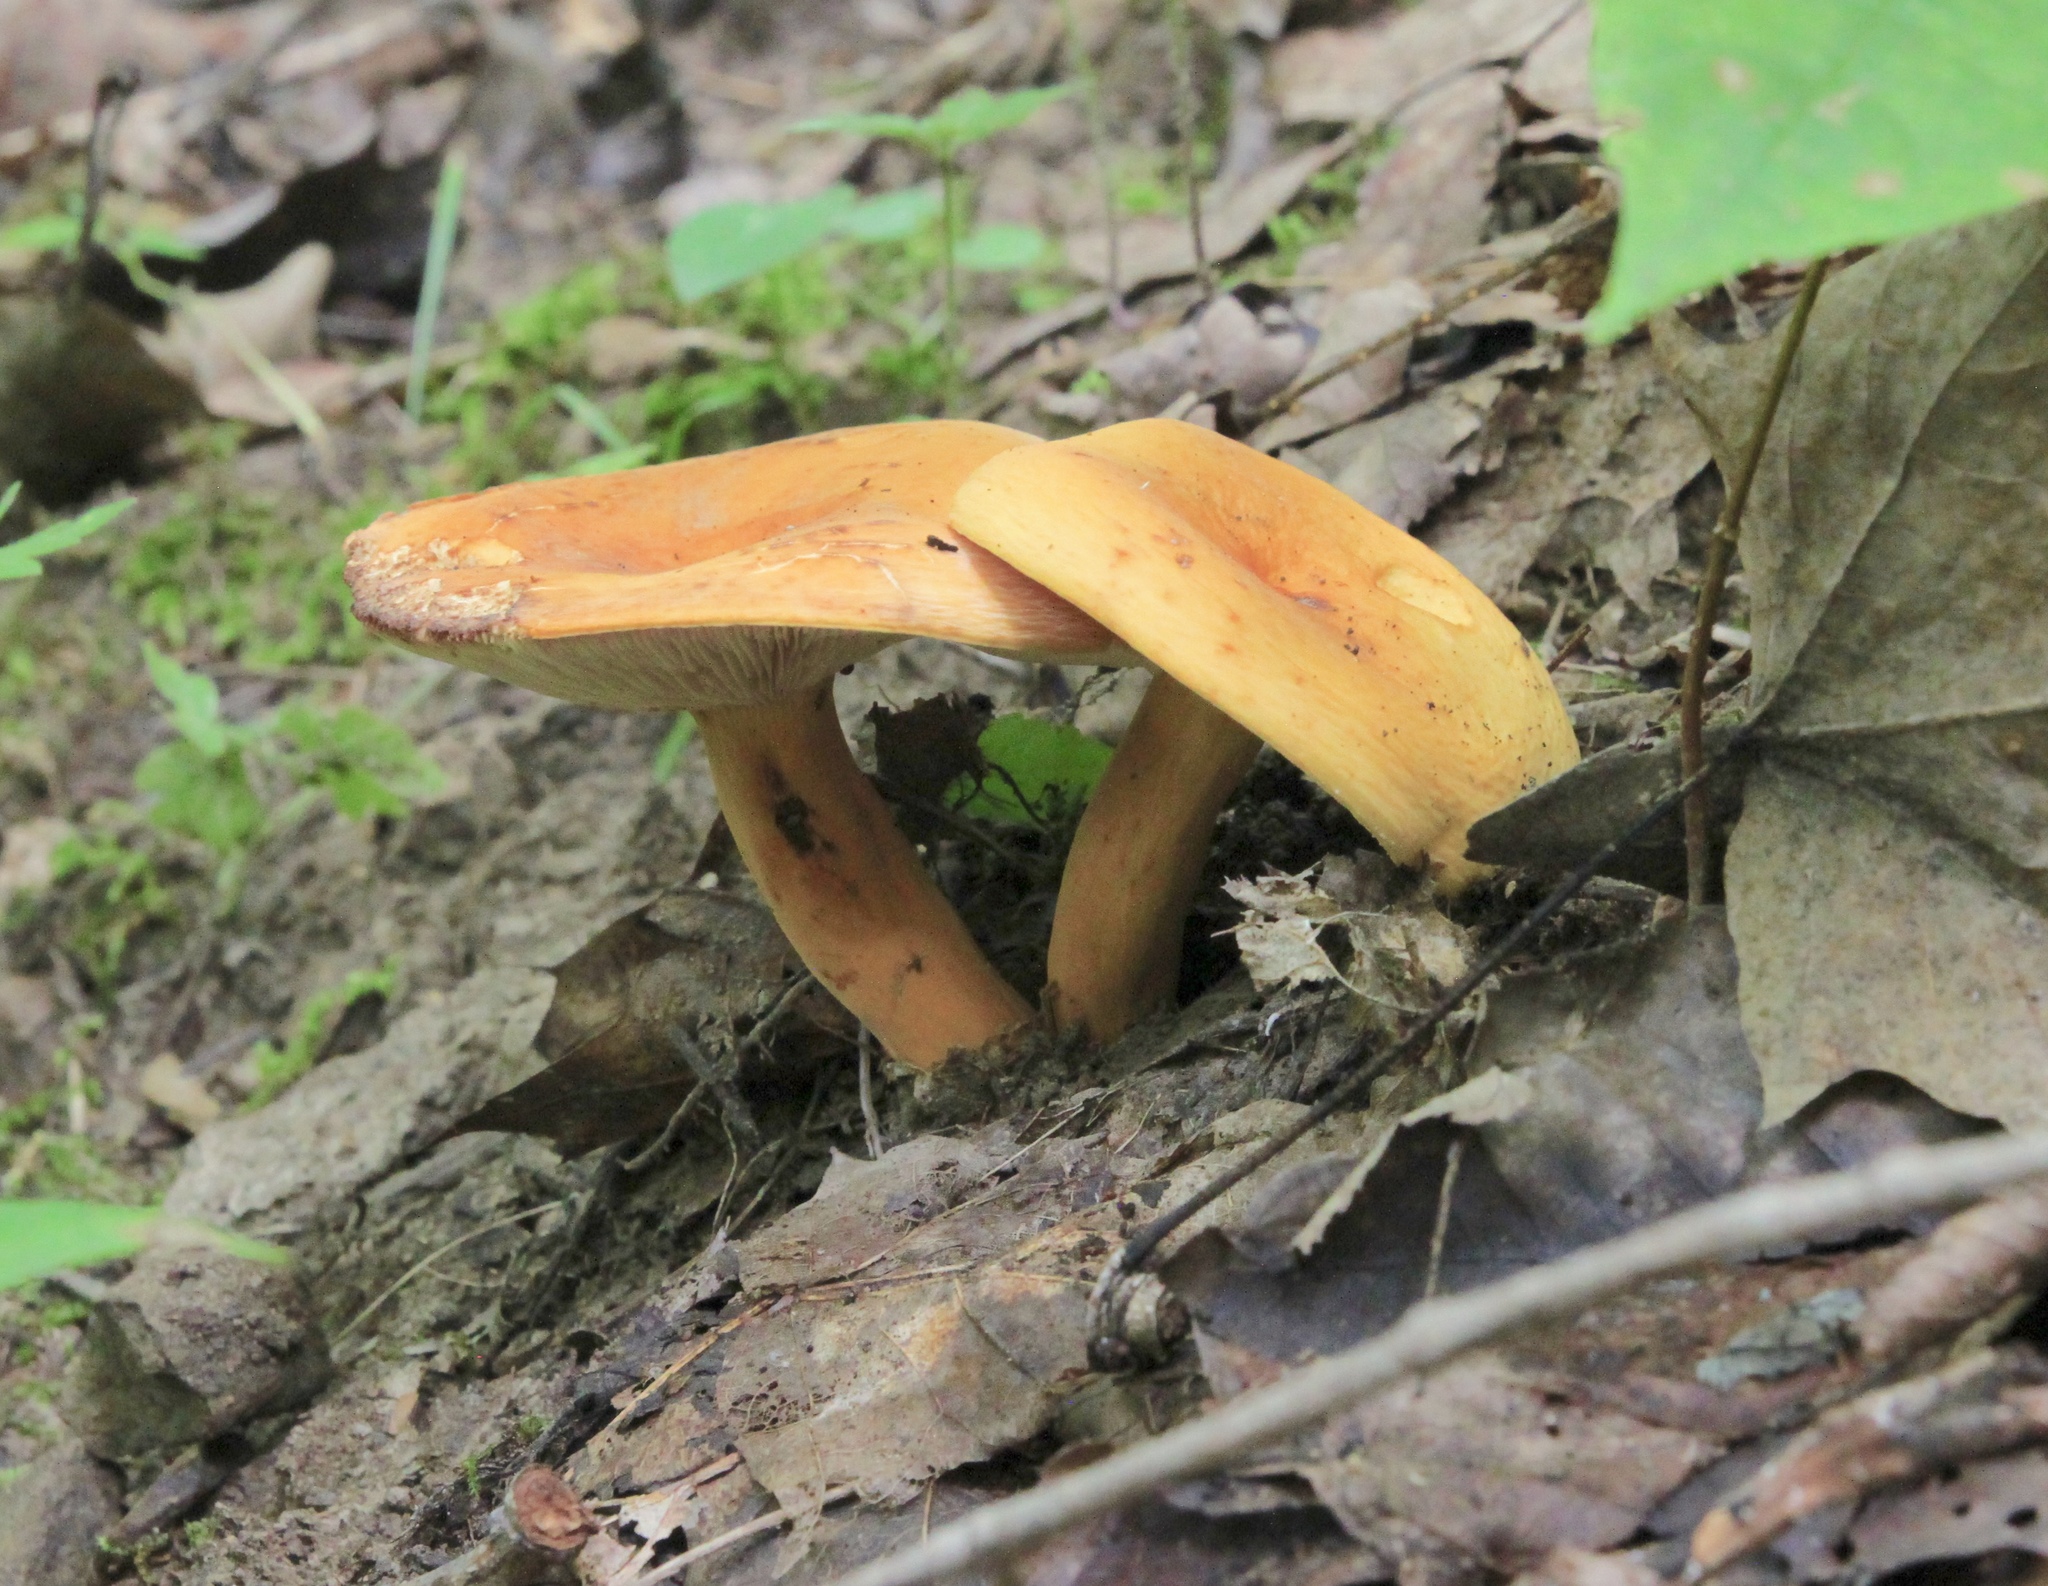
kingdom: Fungi
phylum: Basidiomycota
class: Agaricomycetes
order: Russulales
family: Russulaceae
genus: Lactifluus
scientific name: Lactifluus volemus
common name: Fishy milkcap
